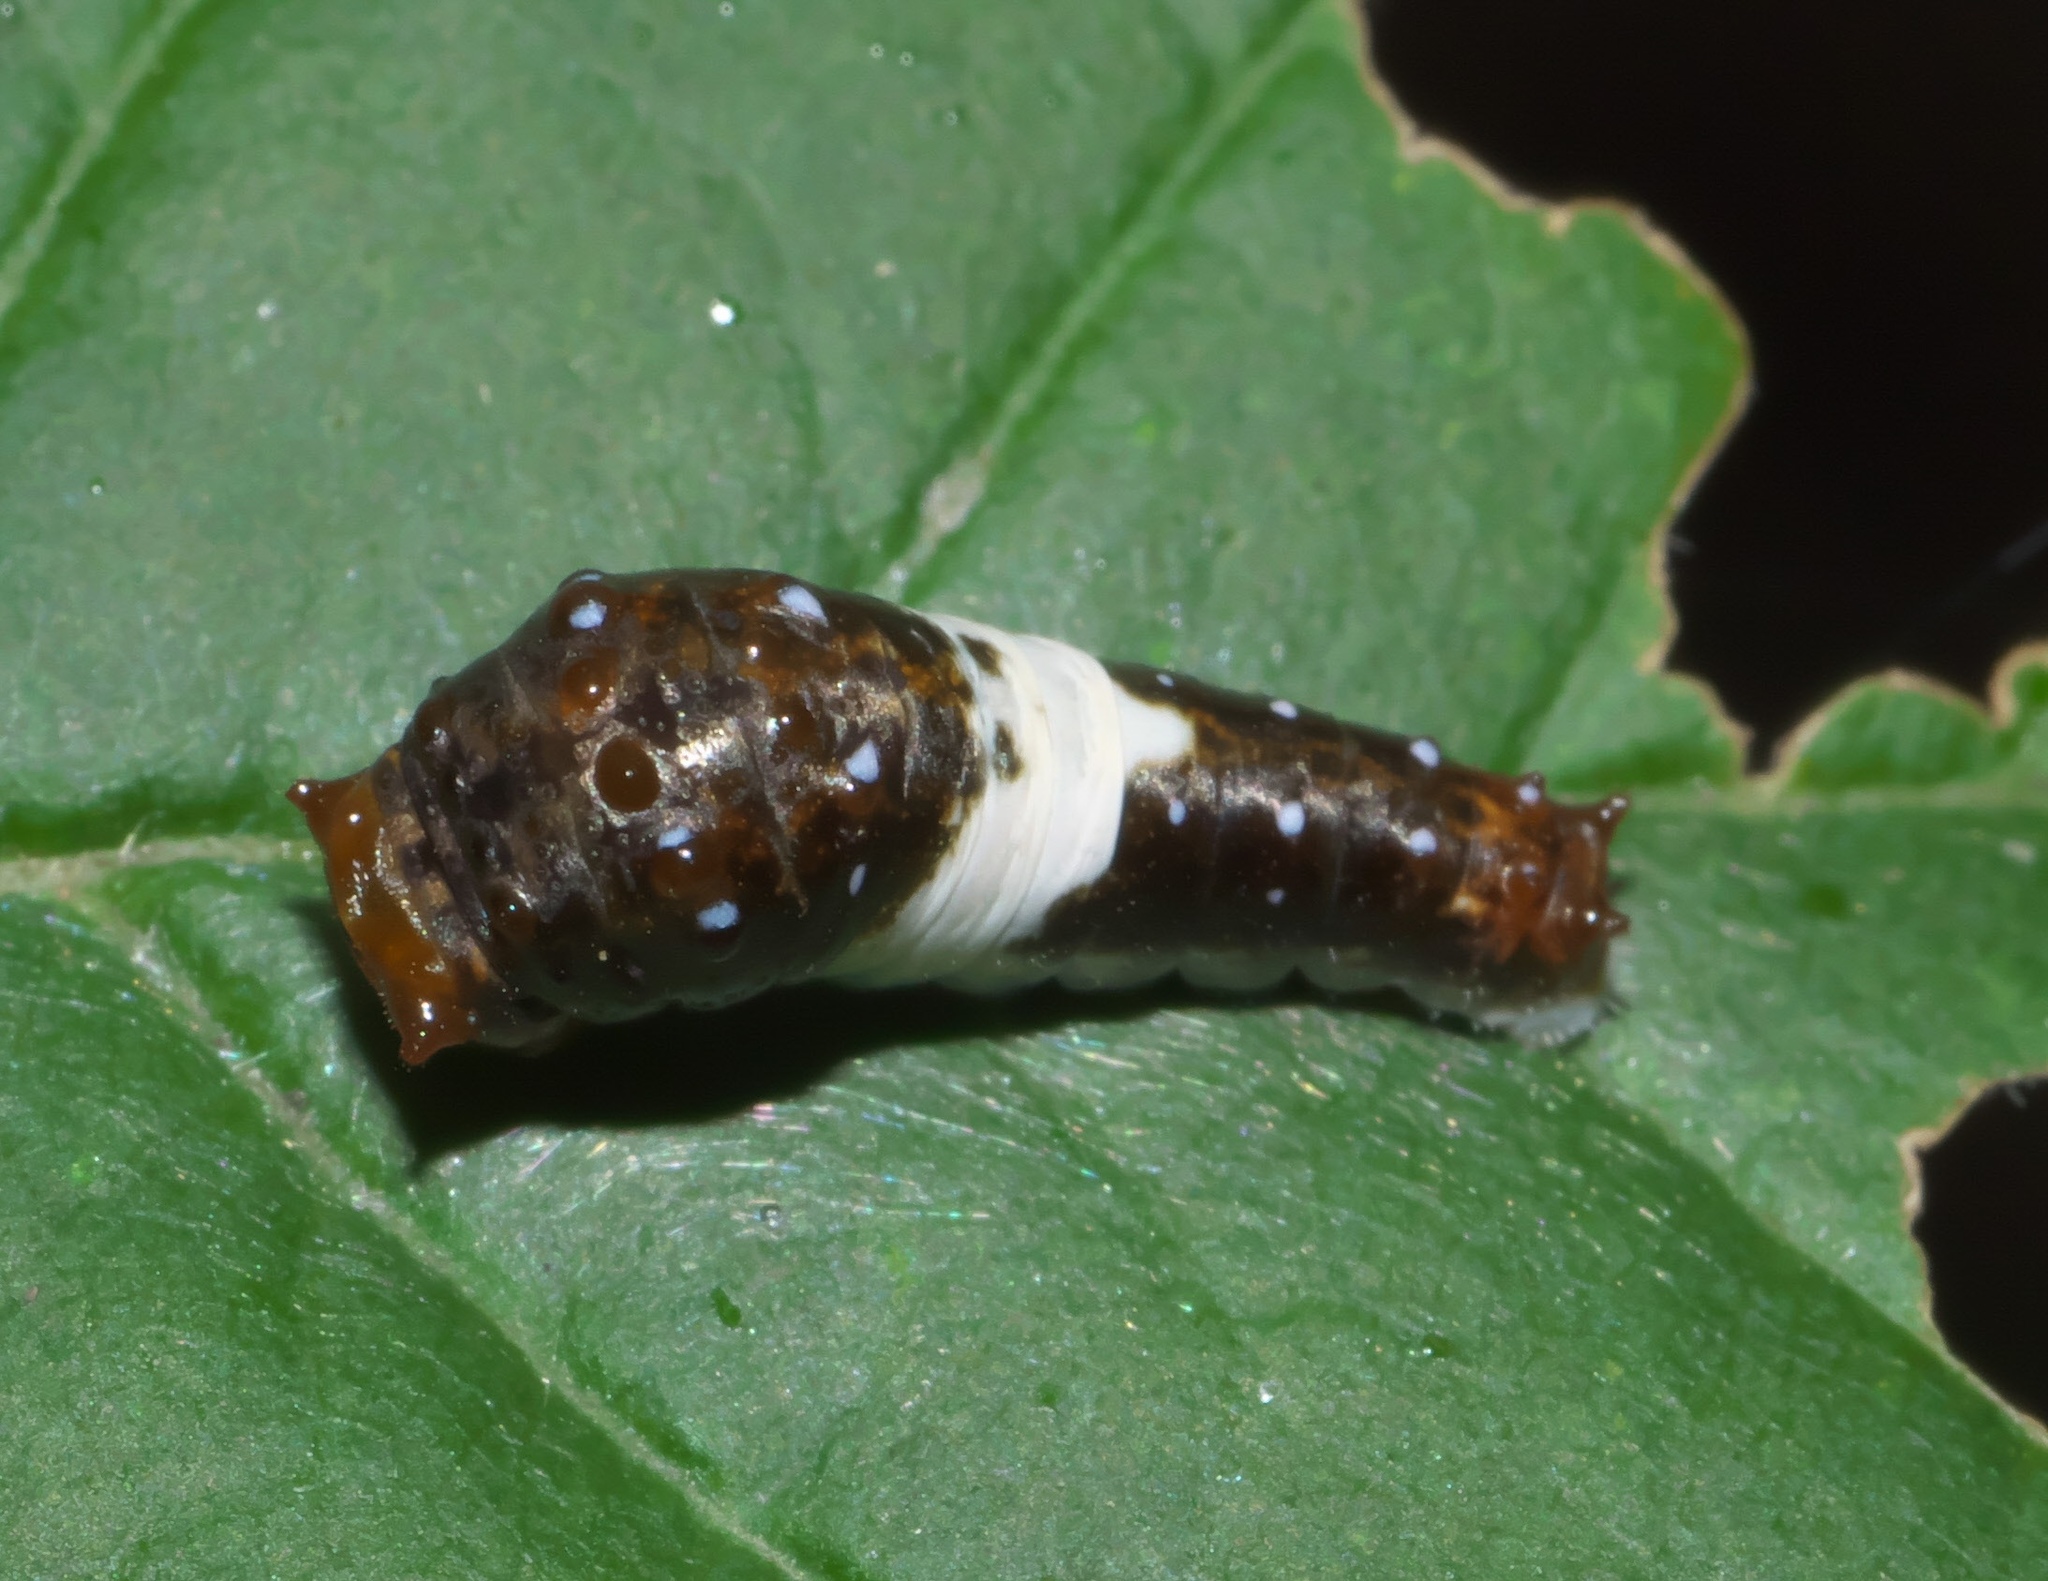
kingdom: Animalia
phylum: Arthropoda
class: Insecta
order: Lepidoptera
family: Papilionidae
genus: Papilio
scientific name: Papilio glaucus
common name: Tiger swallowtail
